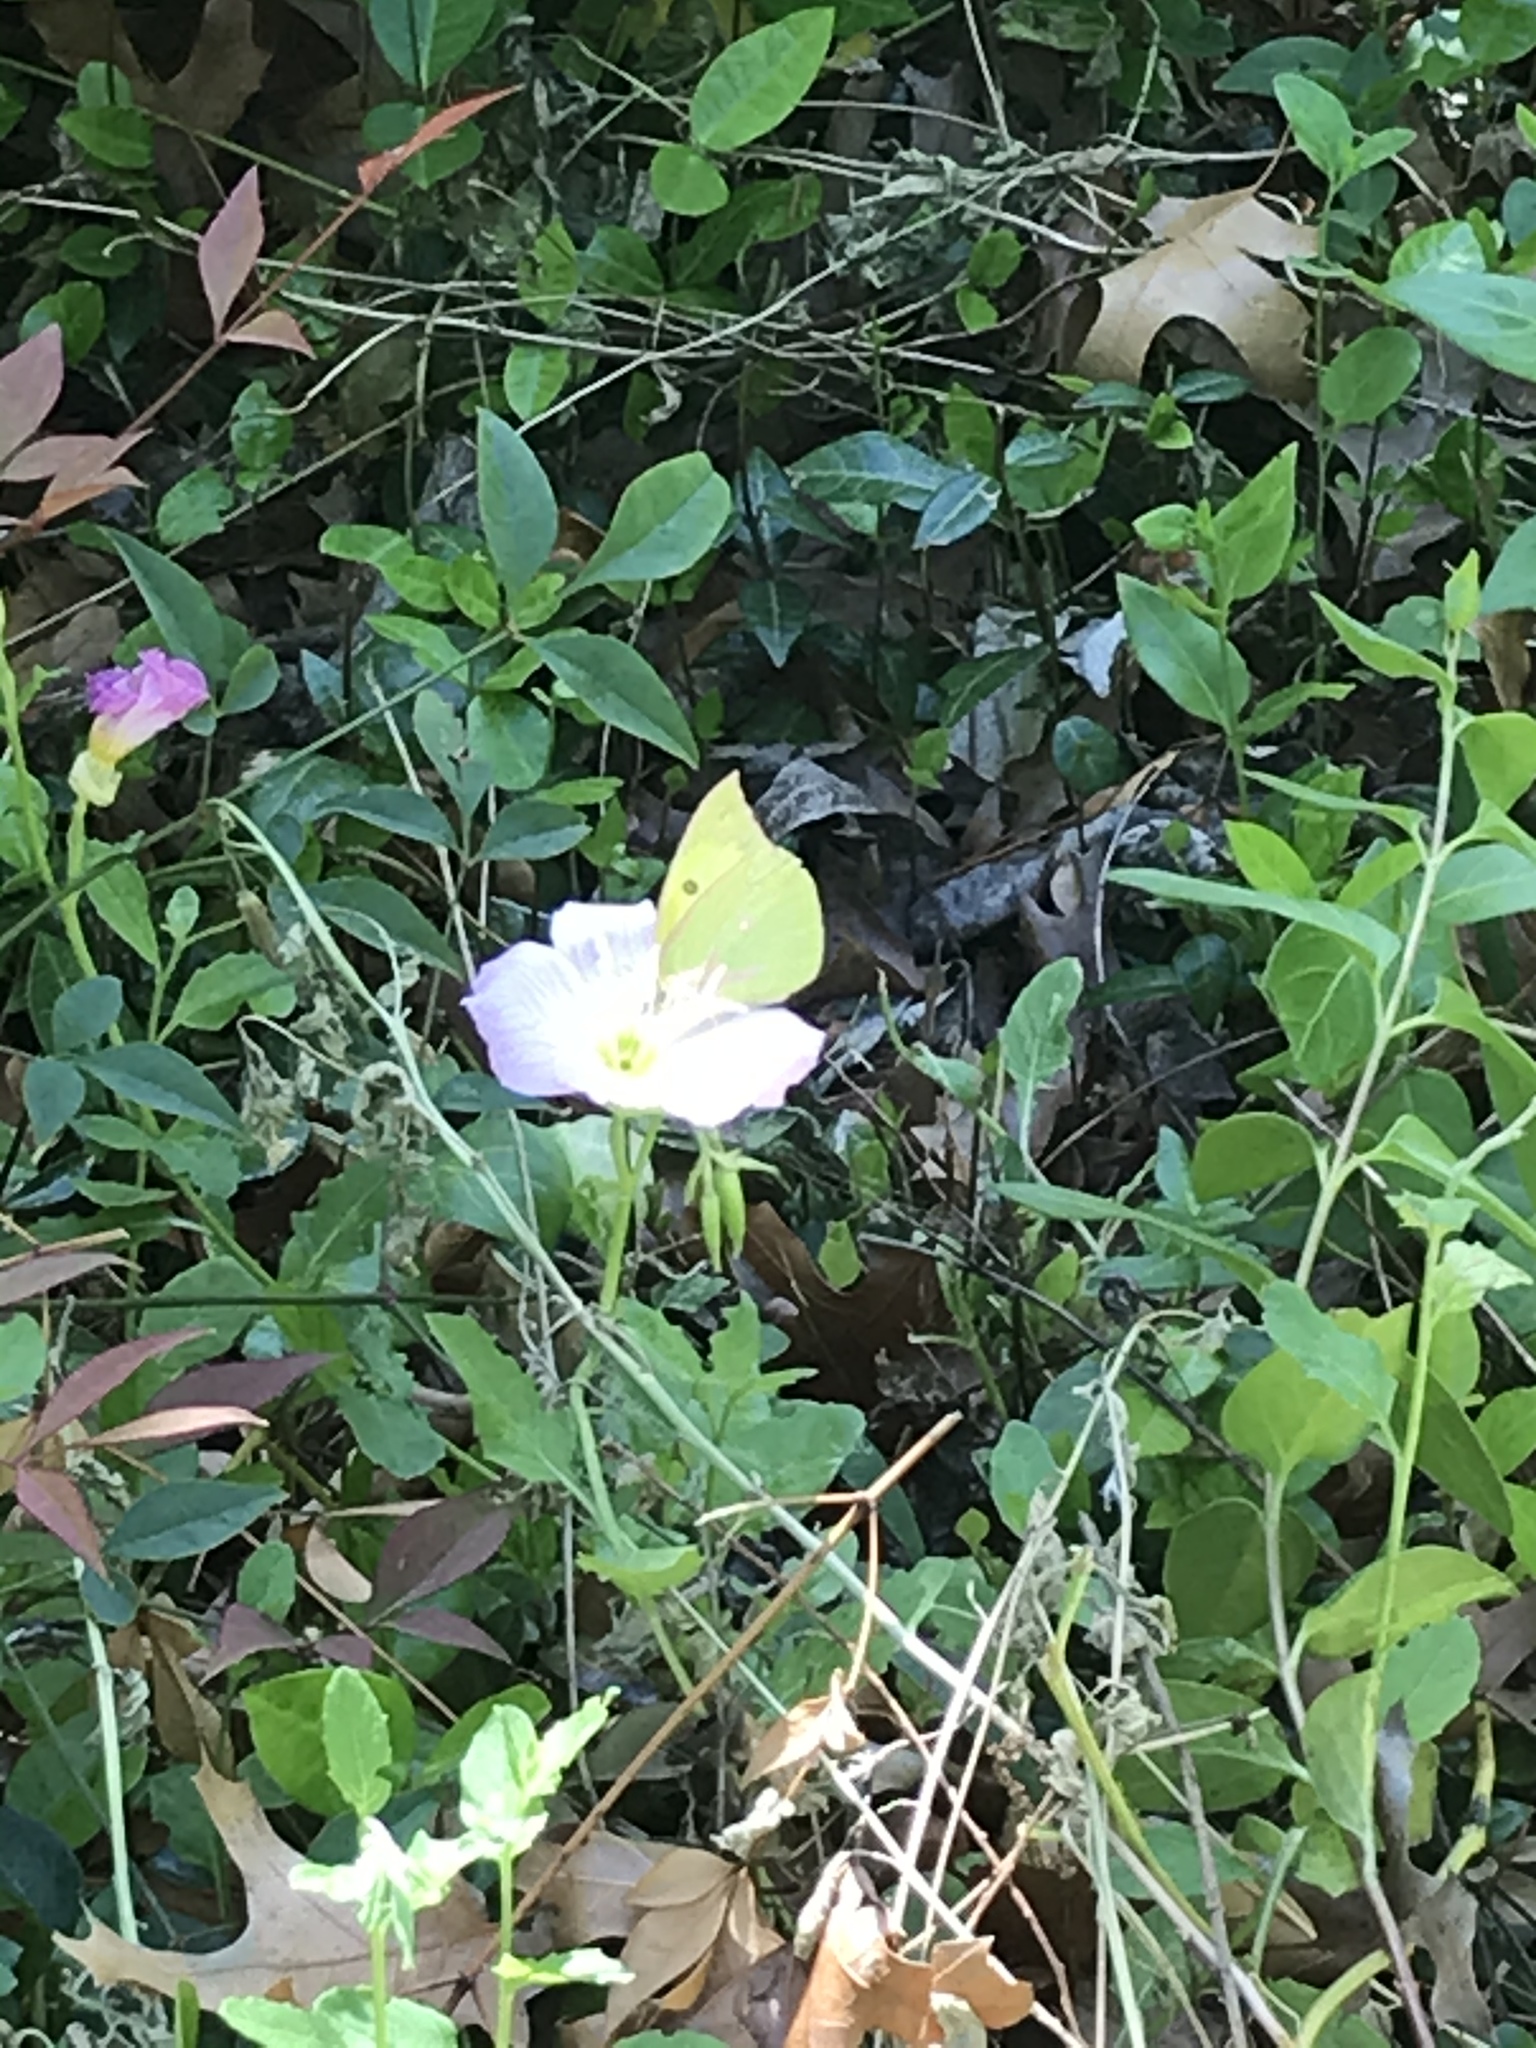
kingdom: Animalia
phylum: Arthropoda
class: Insecta
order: Lepidoptera
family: Pieridae
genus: Zerene
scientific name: Zerene cesonia
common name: Southern dogface
